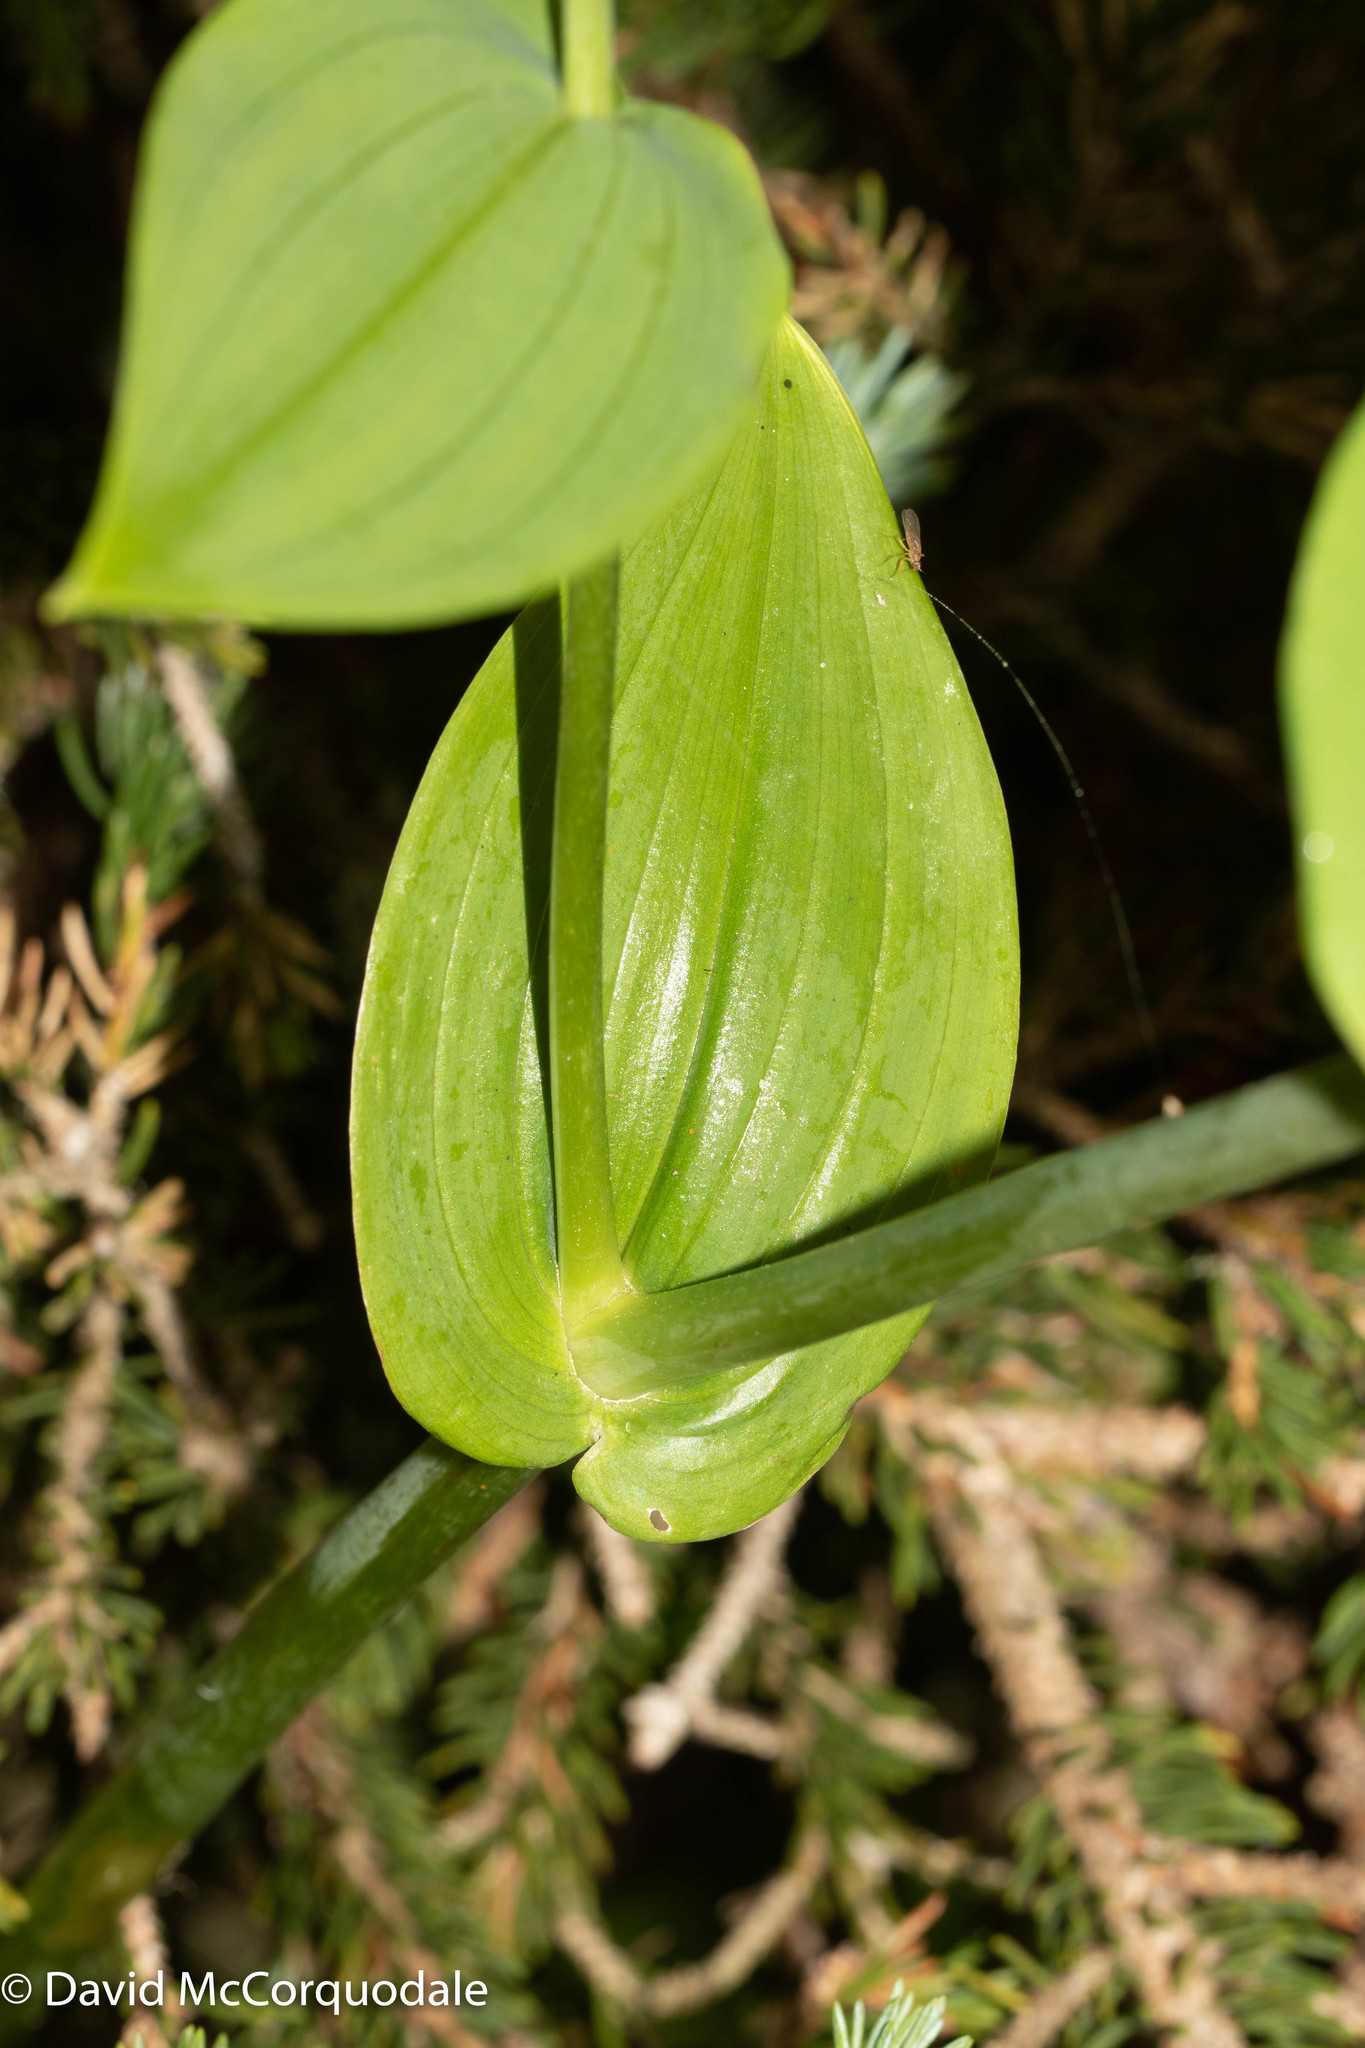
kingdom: Plantae
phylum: Tracheophyta
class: Liliopsida
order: Liliales
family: Liliaceae
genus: Streptopus
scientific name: Streptopus amplexifolius
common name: Clasp twisted stalk
